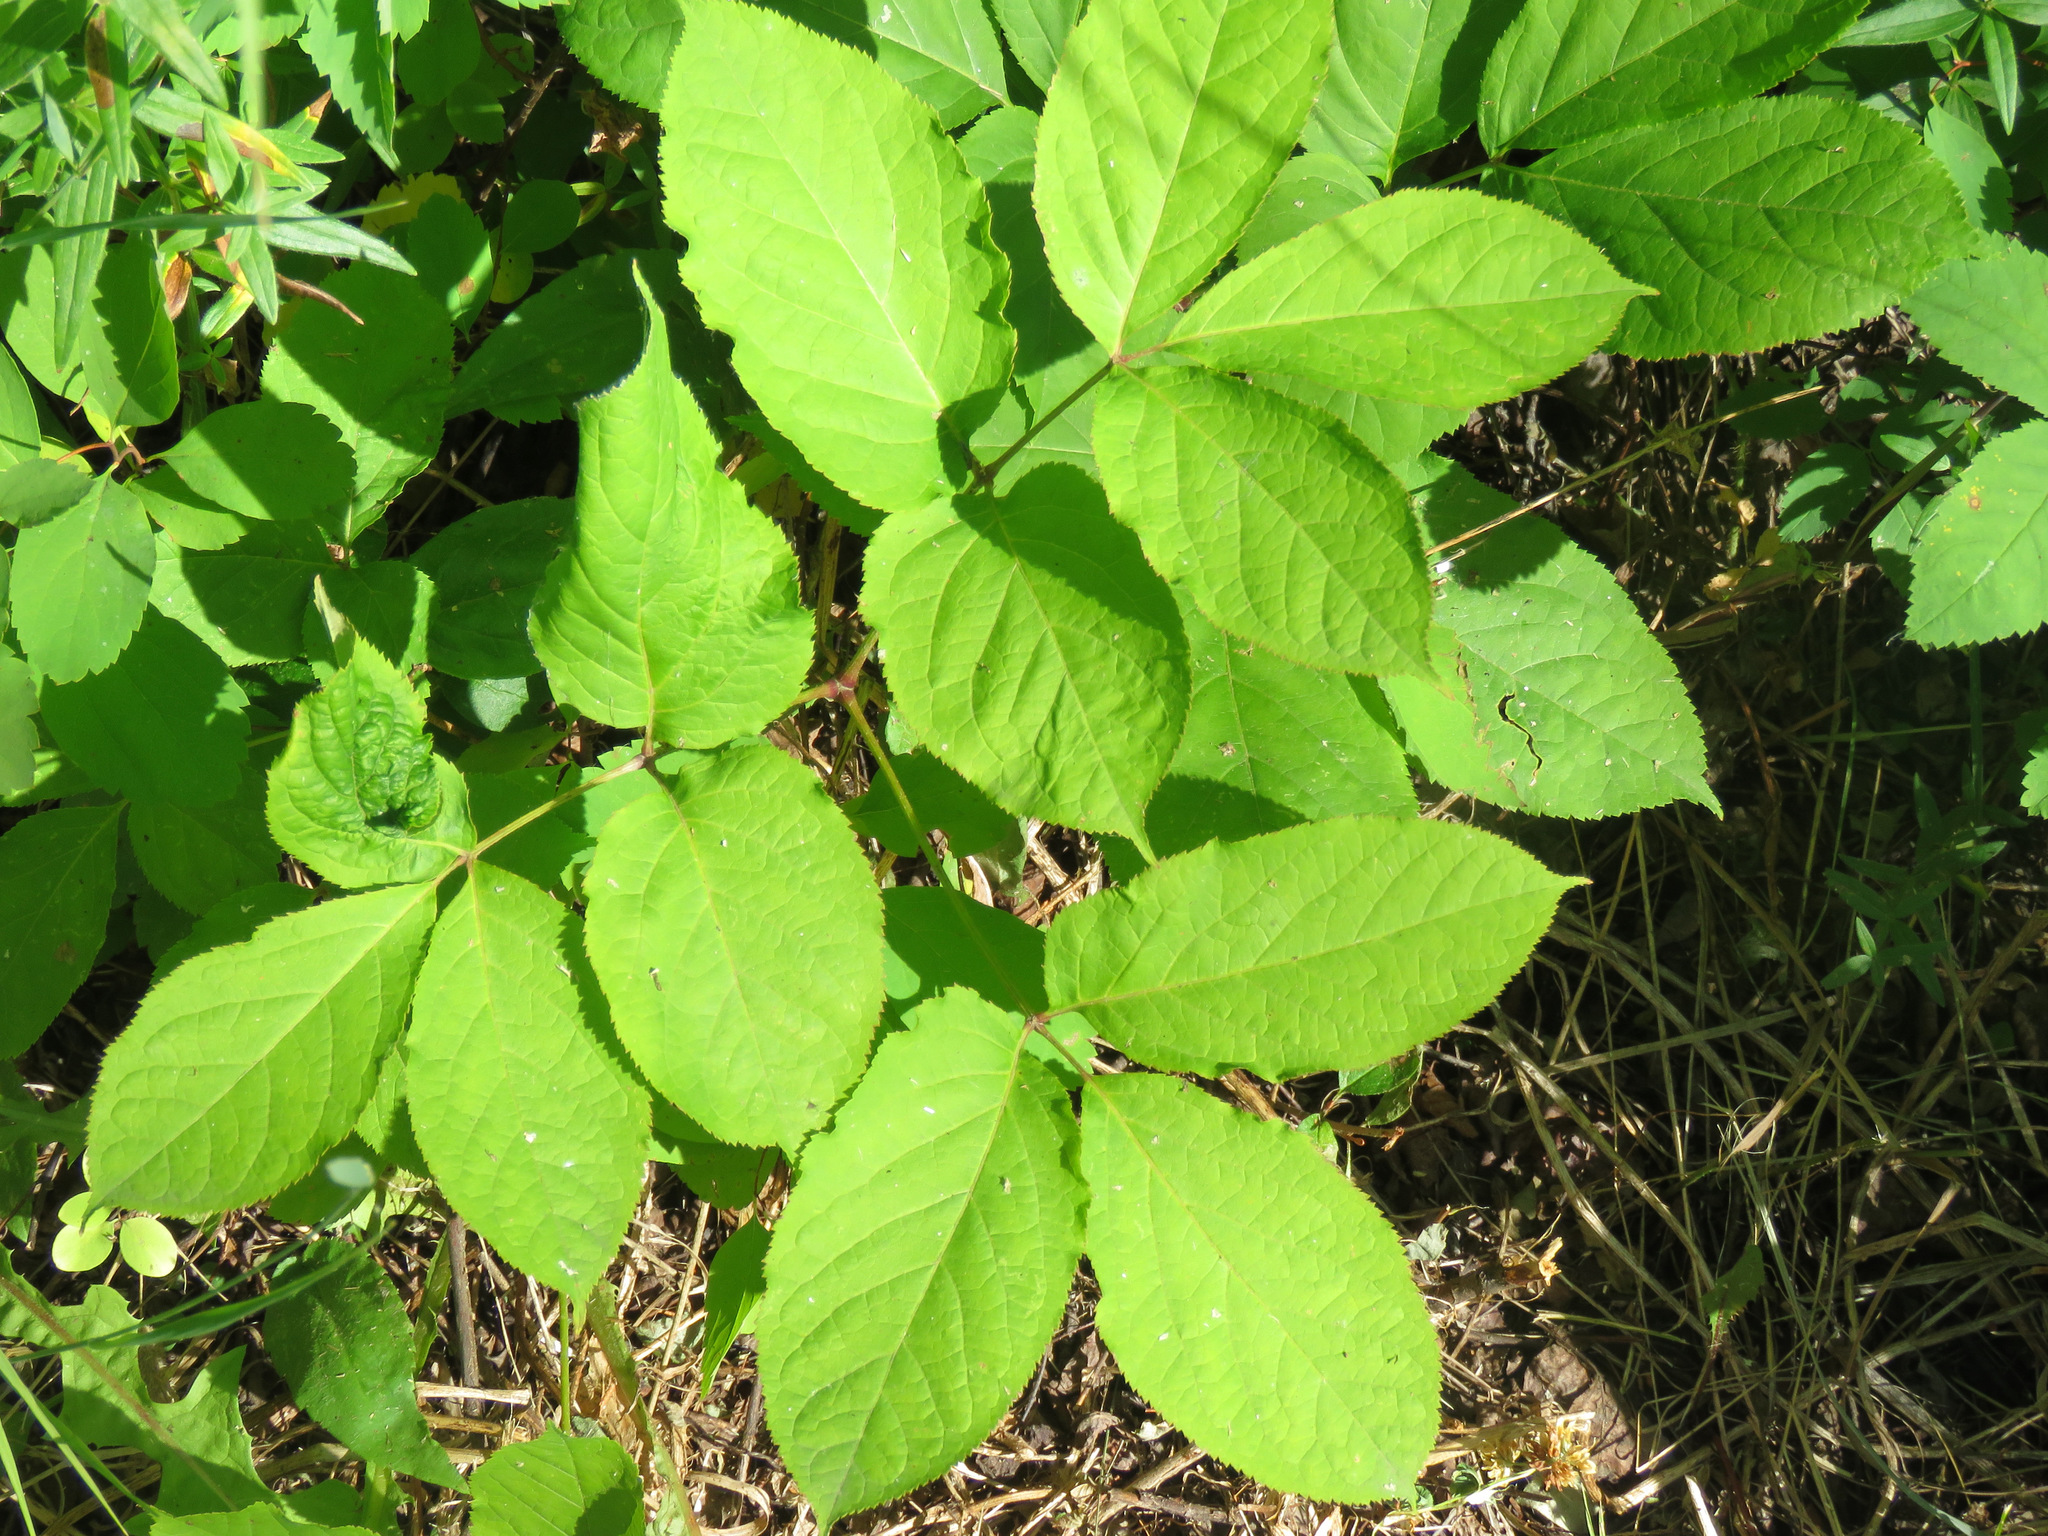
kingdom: Plantae
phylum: Tracheophyta
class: Magnoliopsida
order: Apiales
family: Araliaceae
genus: Aralia
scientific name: Aralia nudicaulis
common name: Wild sarsaparilla
